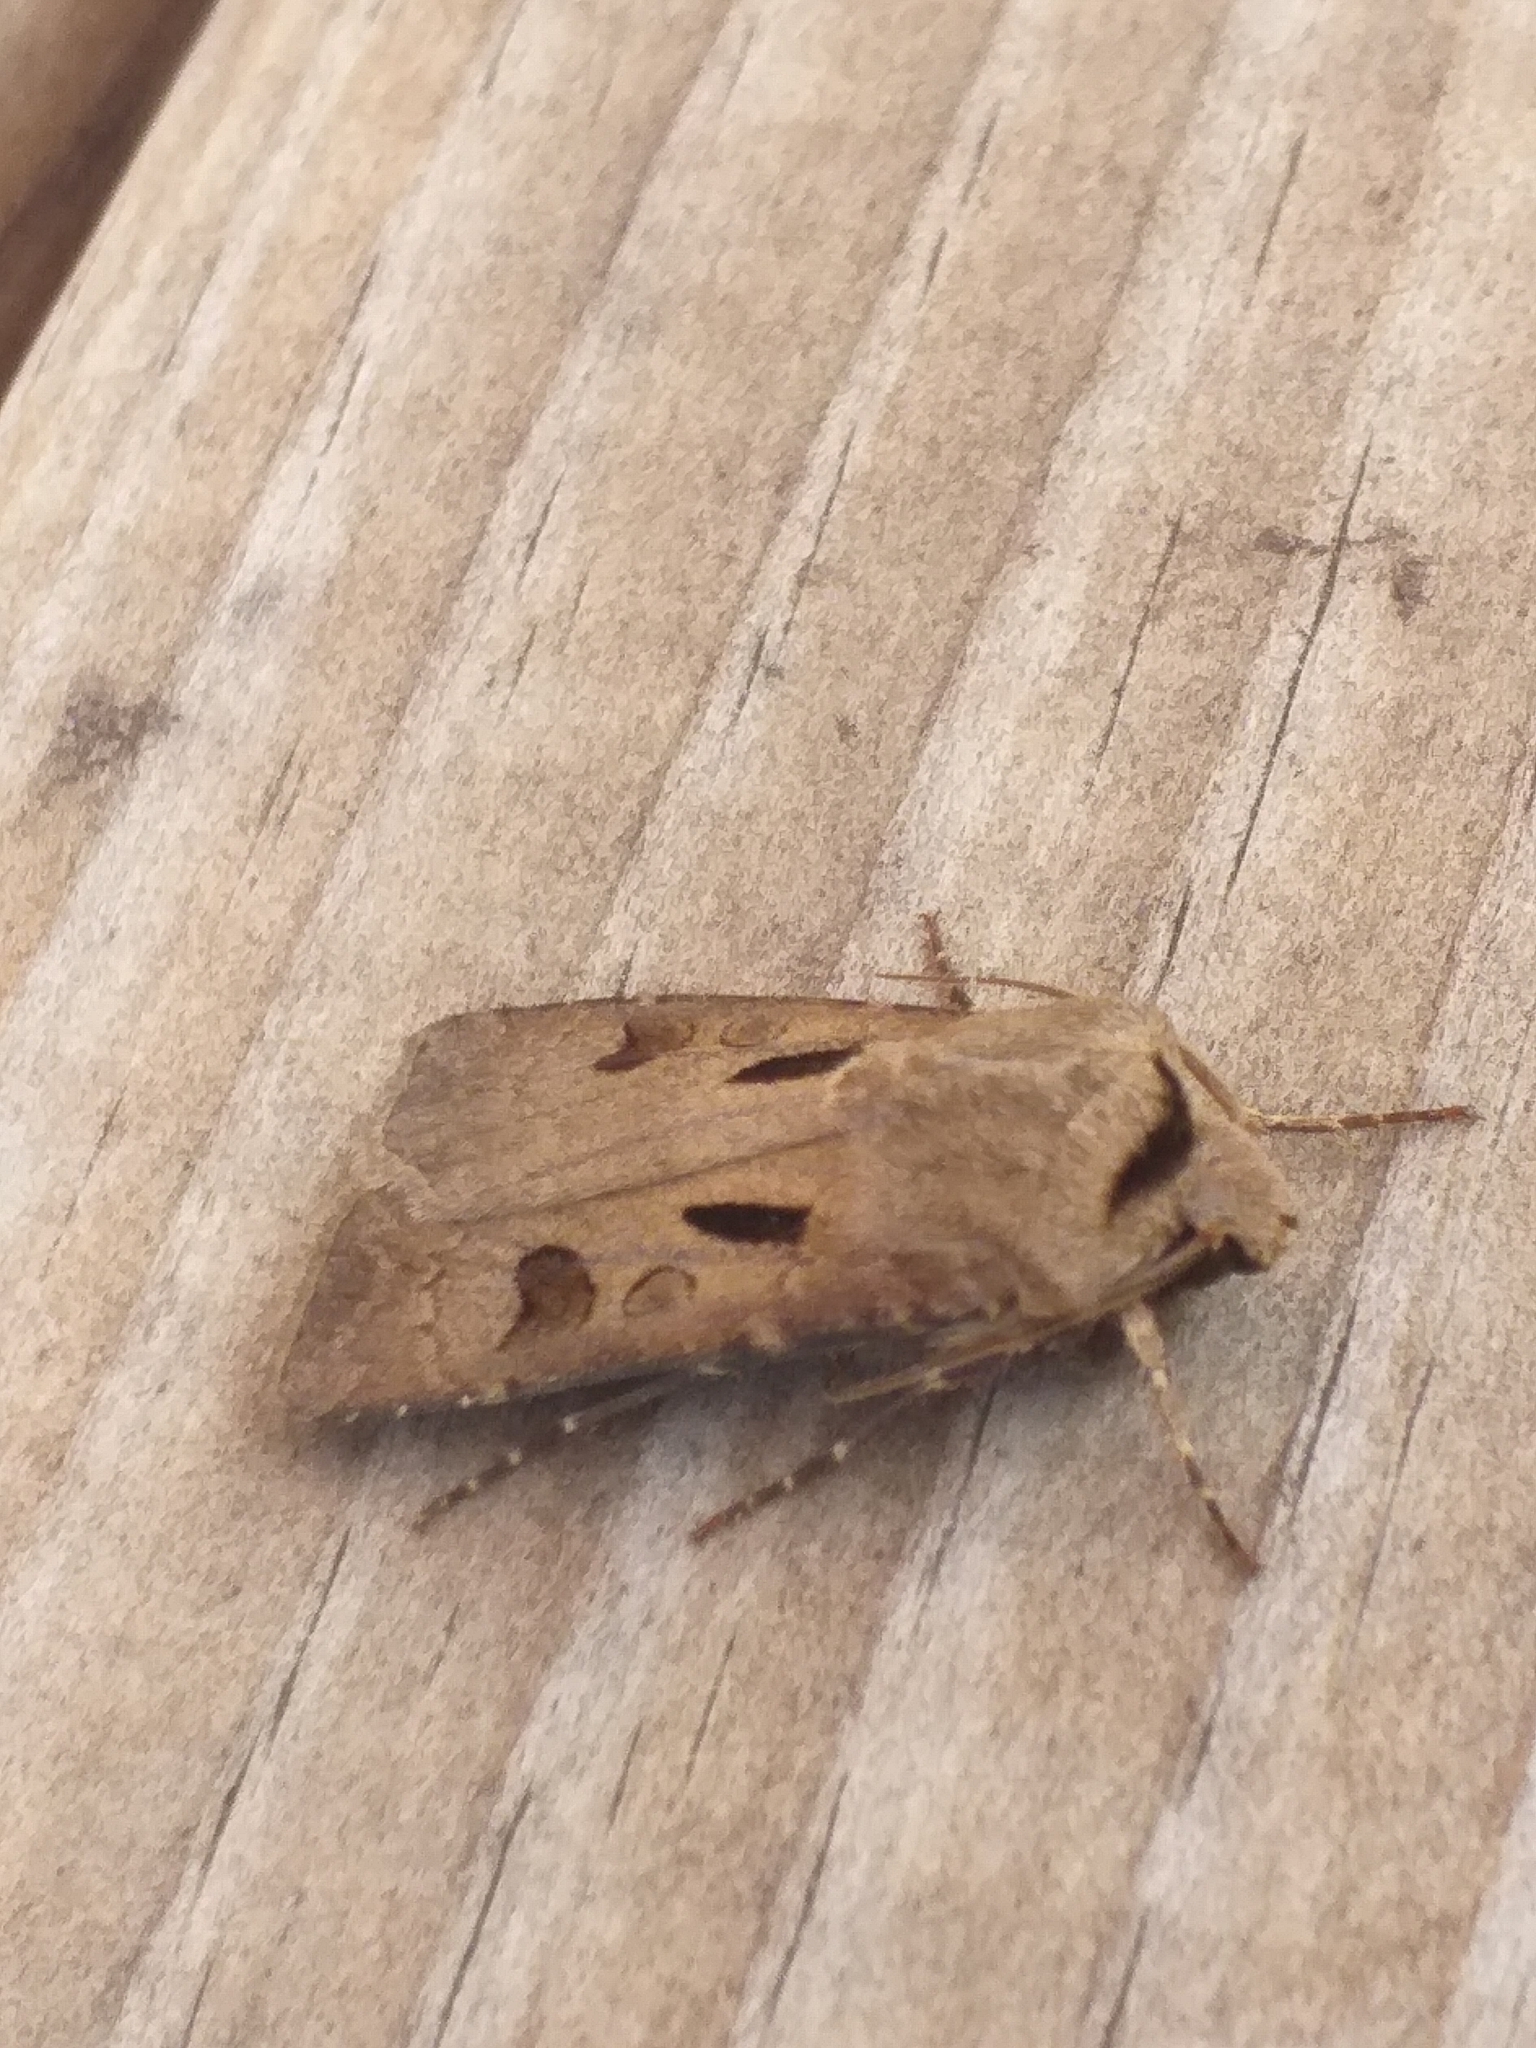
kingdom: Animalia
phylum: Arthropoda
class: Insecta
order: Lepidoptera
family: Noctuidae
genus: Agrotis
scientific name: Agrotis exclamationis
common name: Heart and dart
